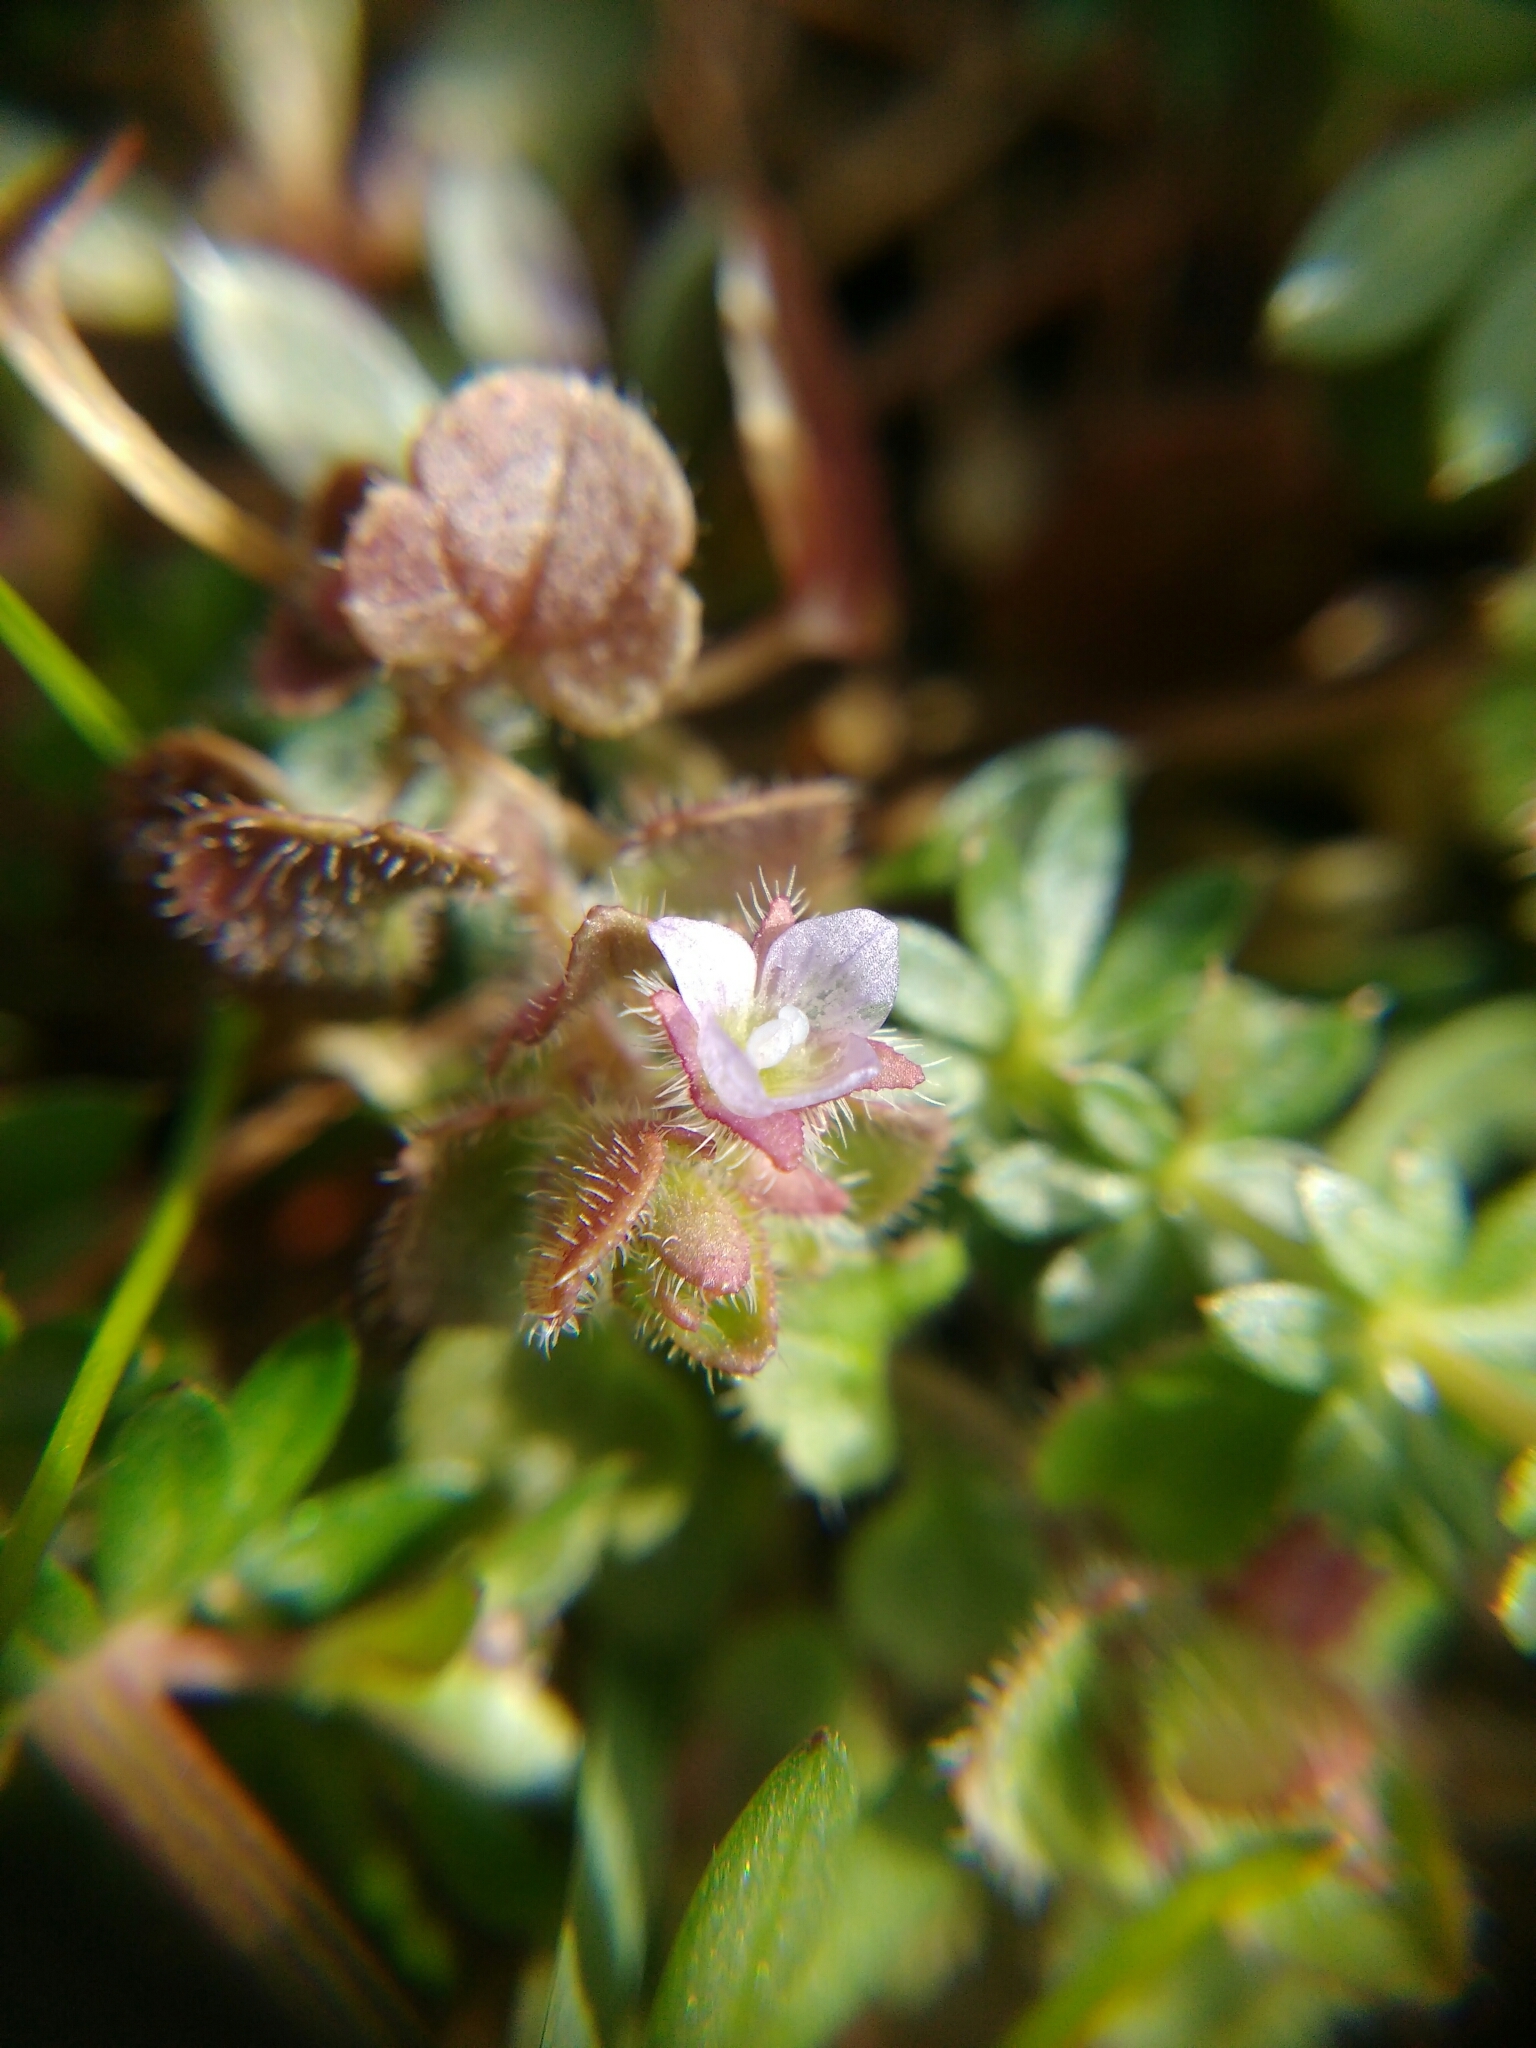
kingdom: Plantae
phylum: Tracheophyta
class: Magnoliopsida
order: Lamiales
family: Plantaginaceae
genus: Veronica
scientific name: Veronica sublobata
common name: False ivy-leaved speedwell
